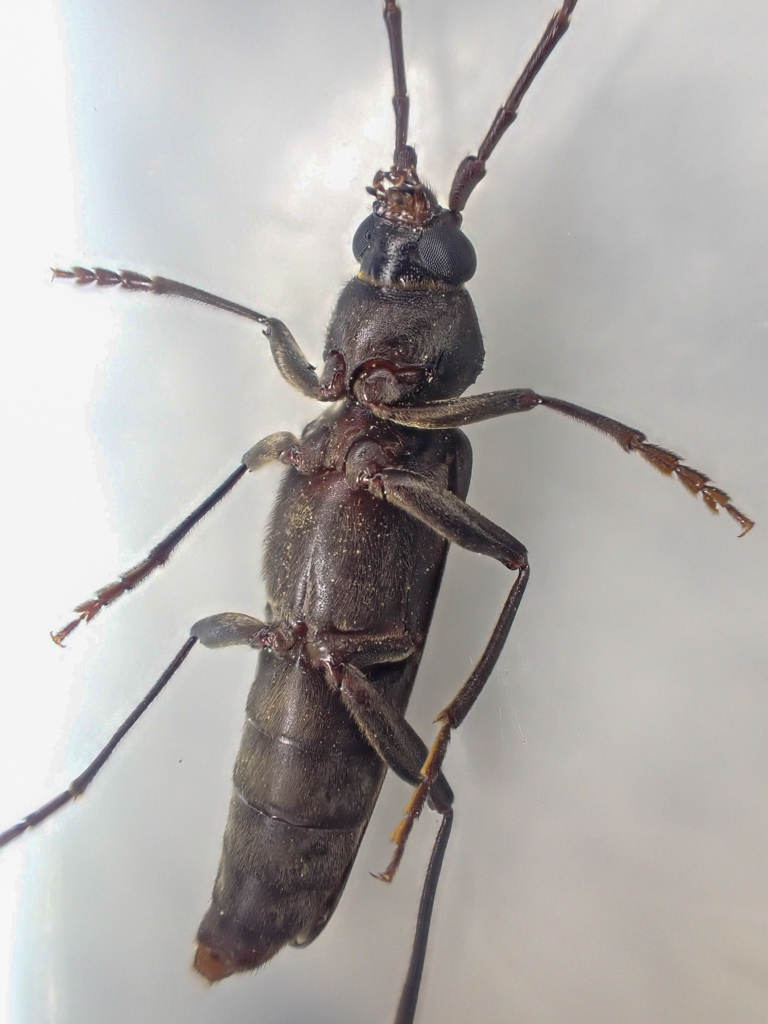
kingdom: Animalia
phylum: Arthropoda
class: Insecta
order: Coleoptera
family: Cerambycidae
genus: Arhopalus
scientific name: Arhopalus productus
